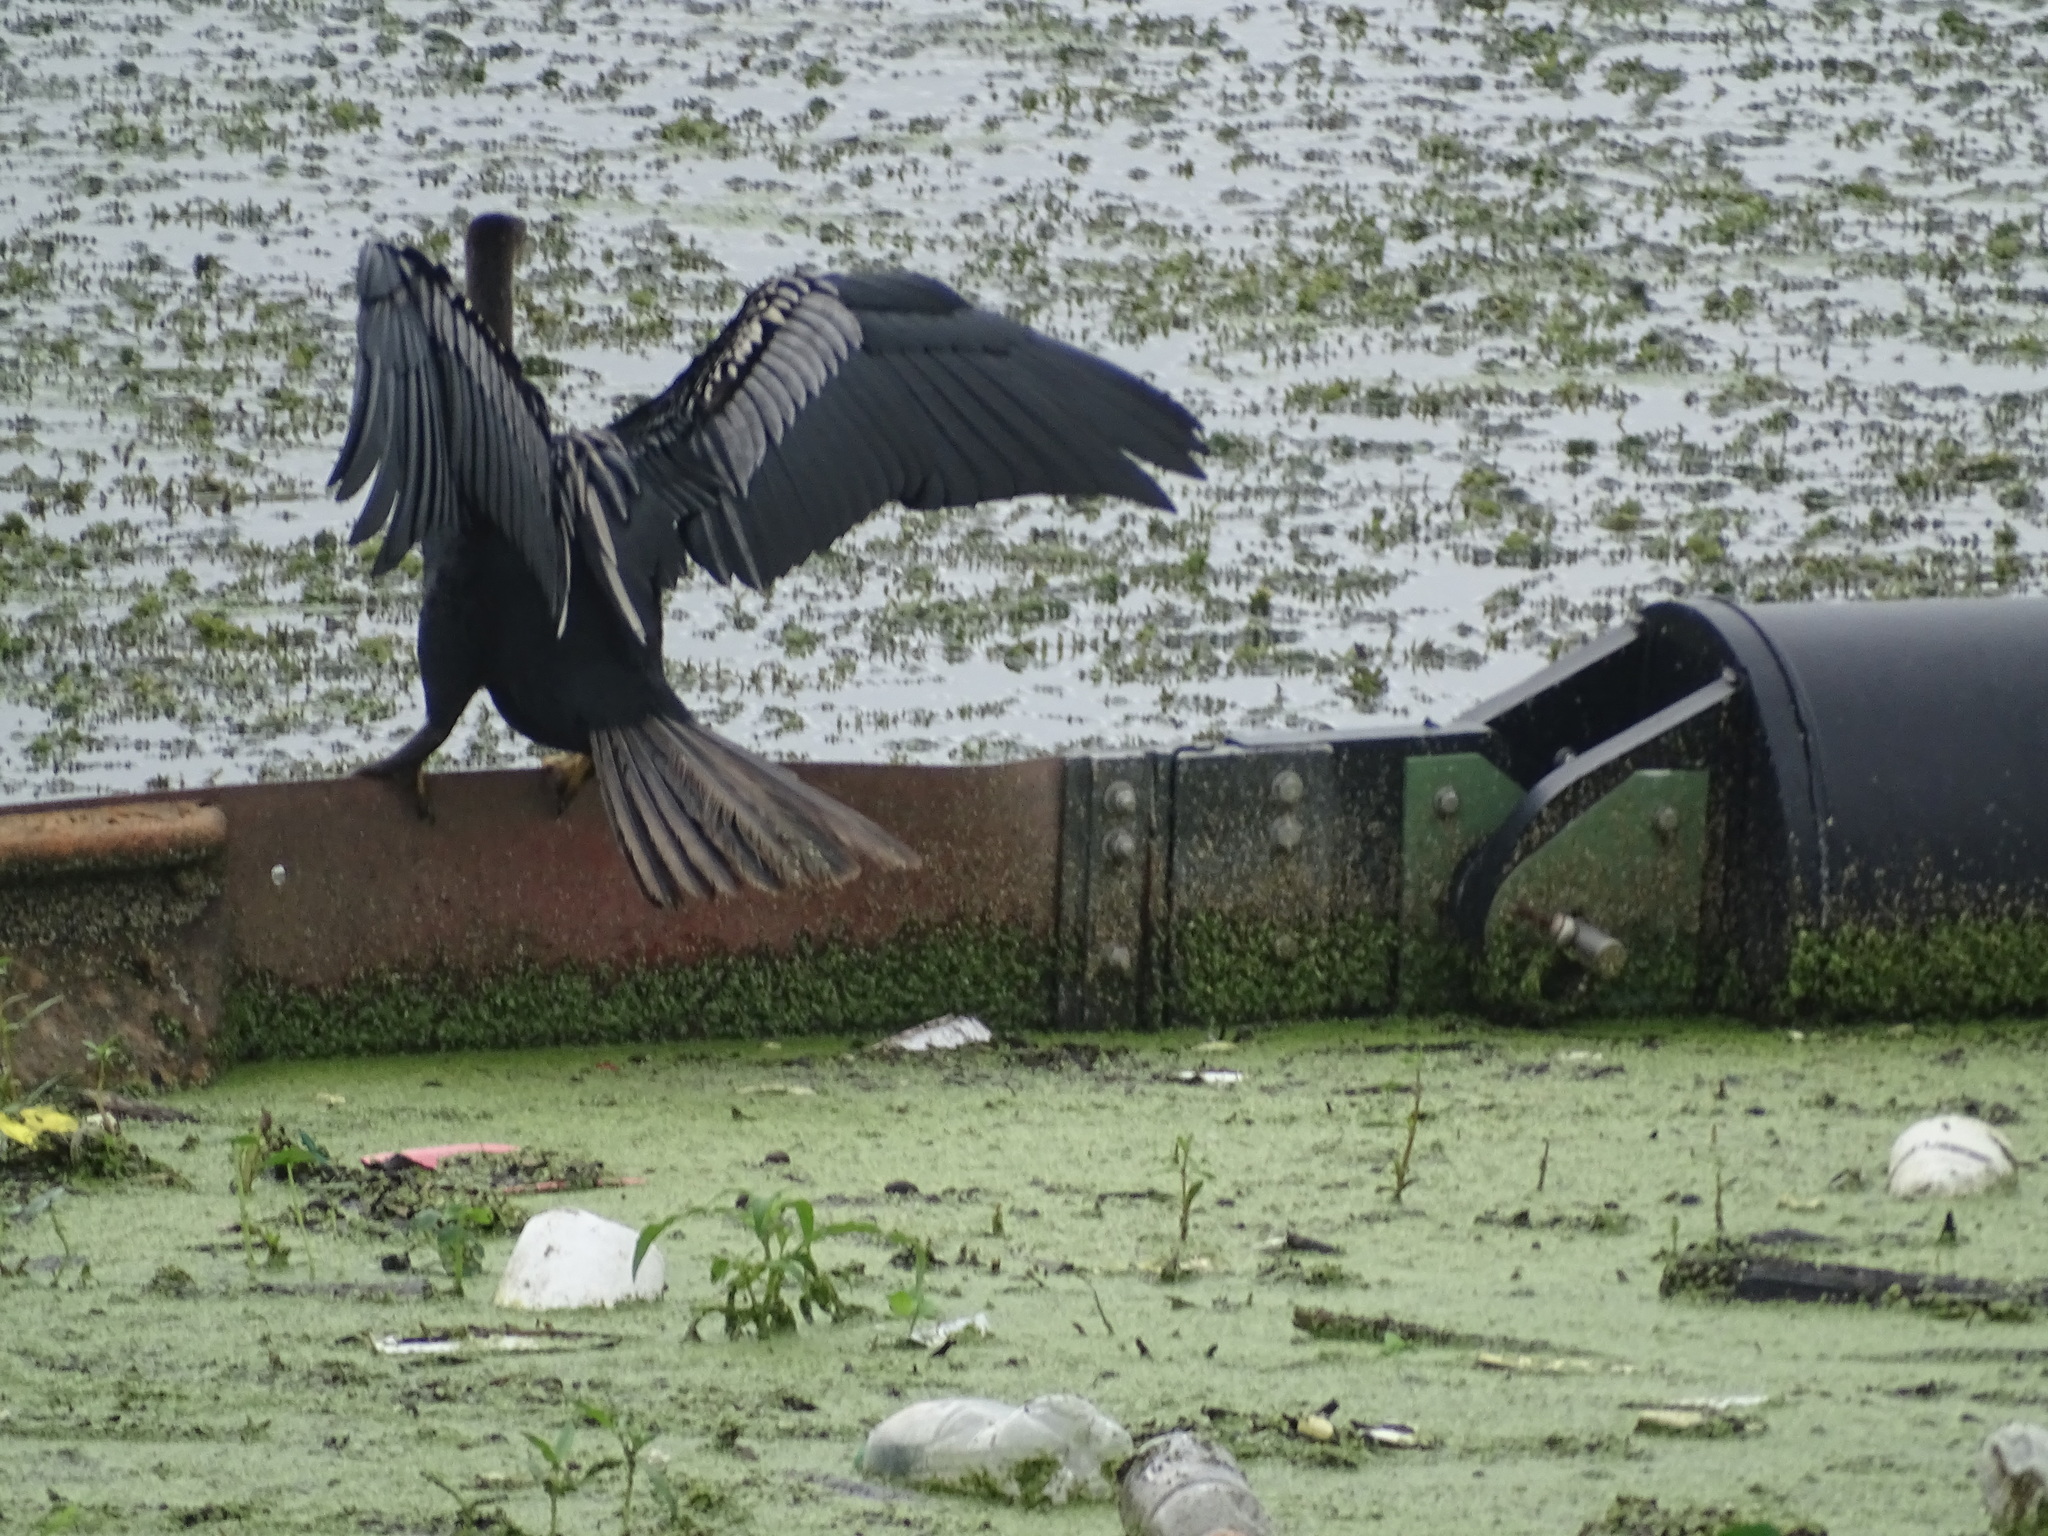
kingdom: Animalia
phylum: Chordata
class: Aves
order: Suliformes
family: Anhingidae
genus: Anhinga
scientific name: Anhinga anhinga
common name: Anhinga
